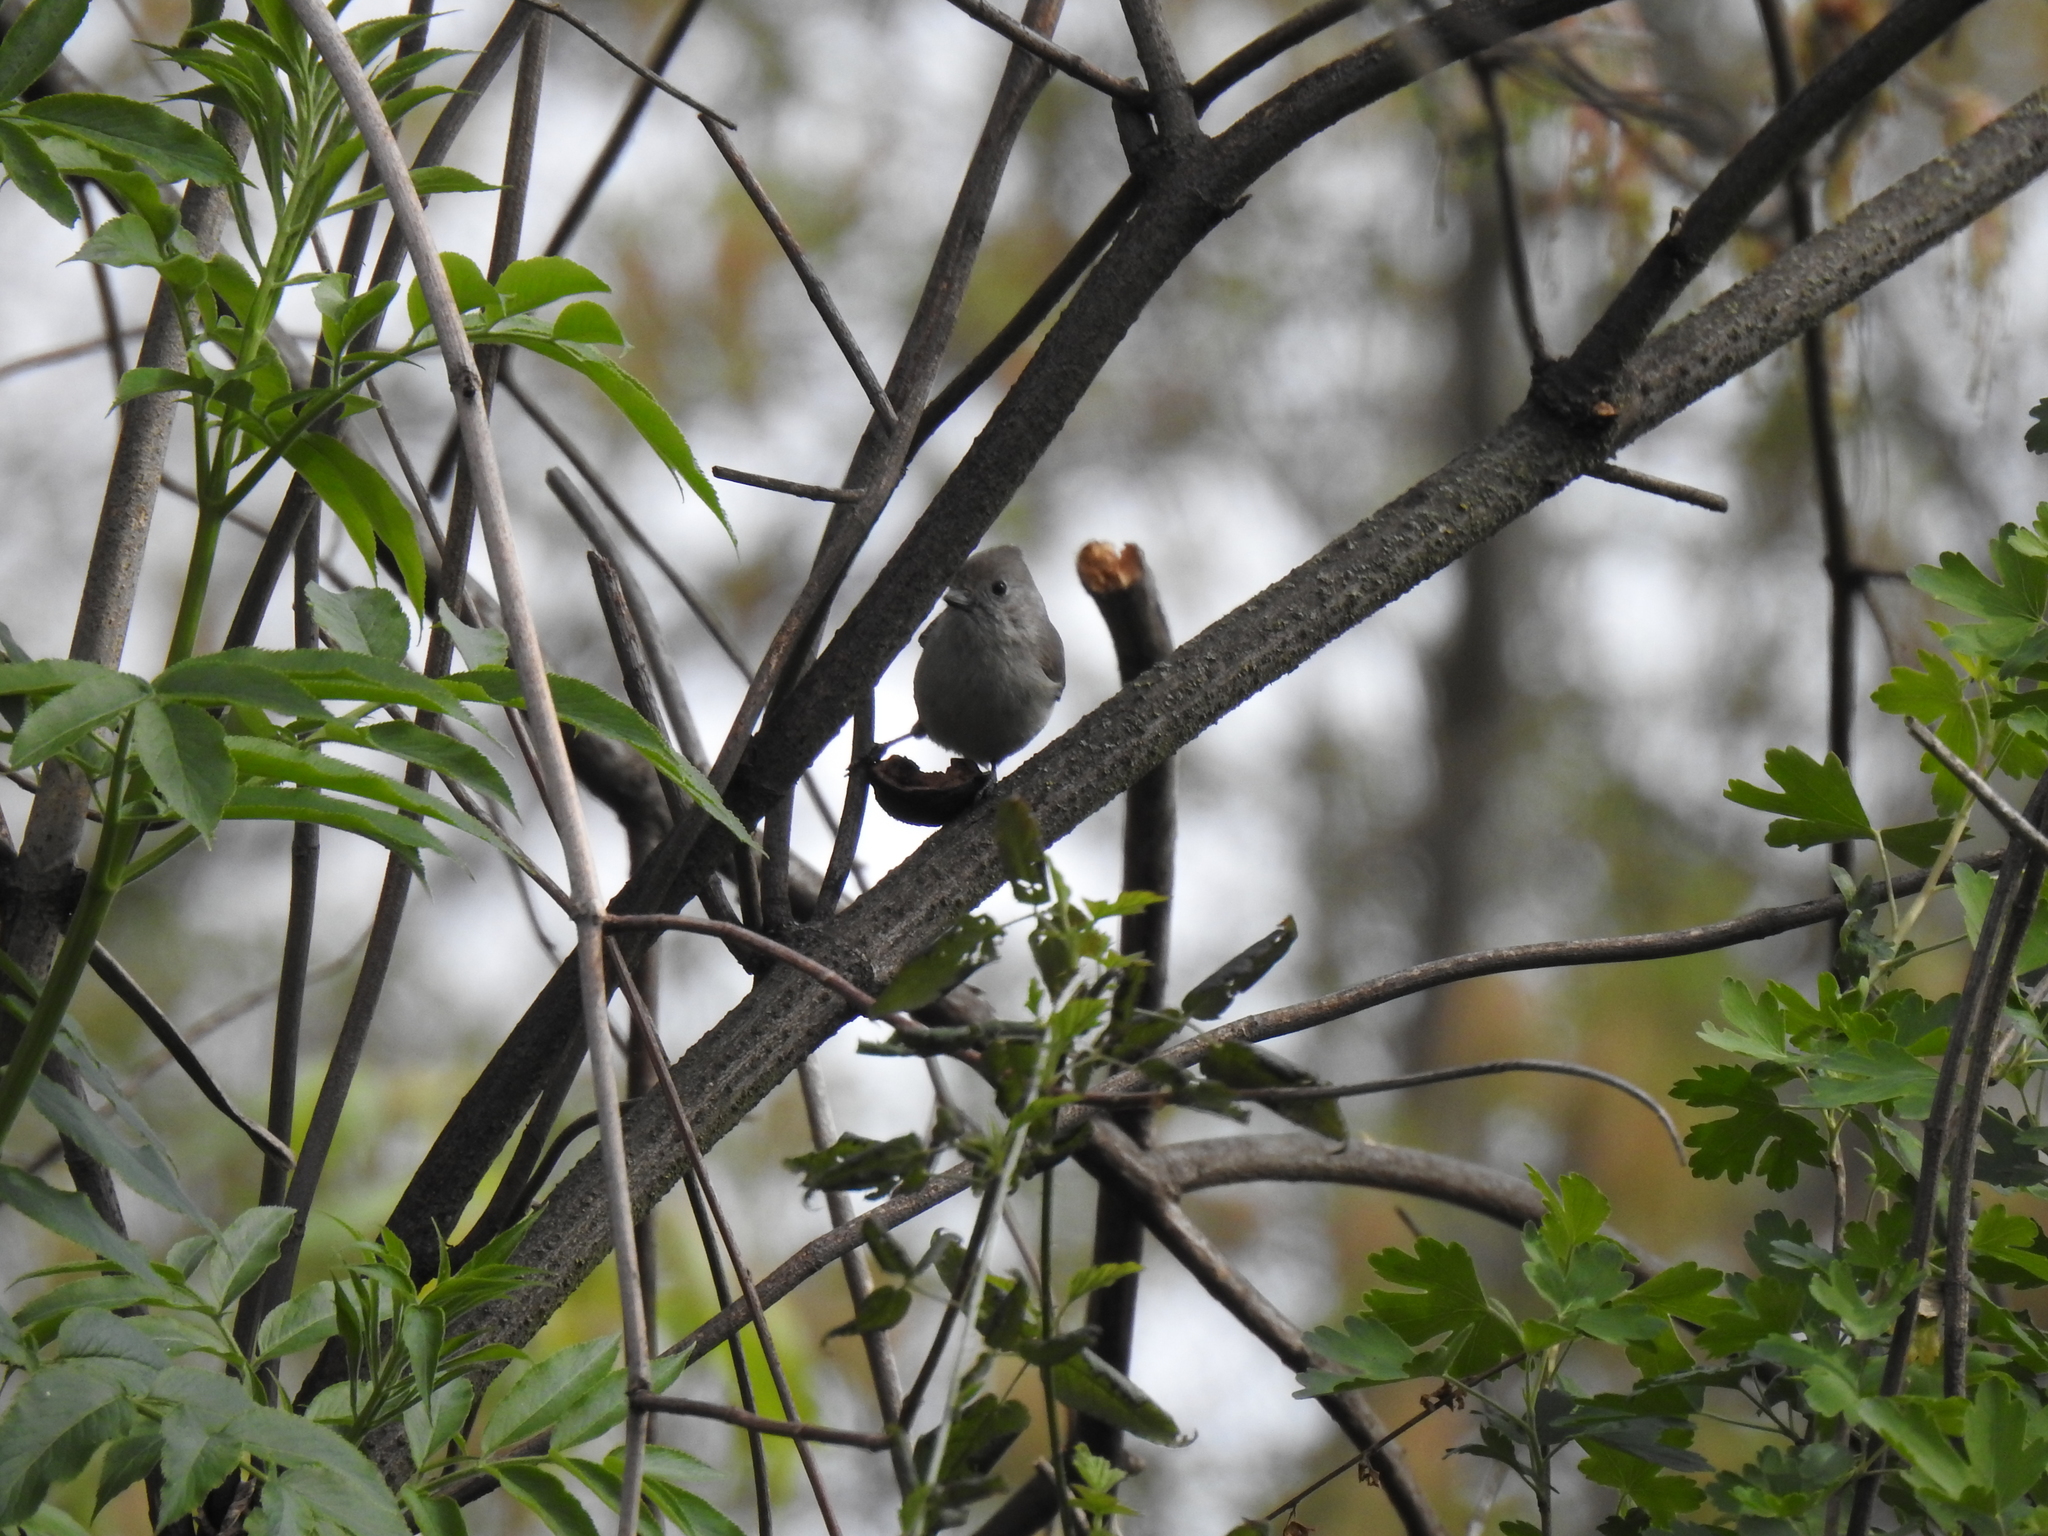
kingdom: Animalia
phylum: Chordata
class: Aves
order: Passeriformes
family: Paridae
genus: Baeolophus
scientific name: Baeolophus inornatus
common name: Oak titmouse
